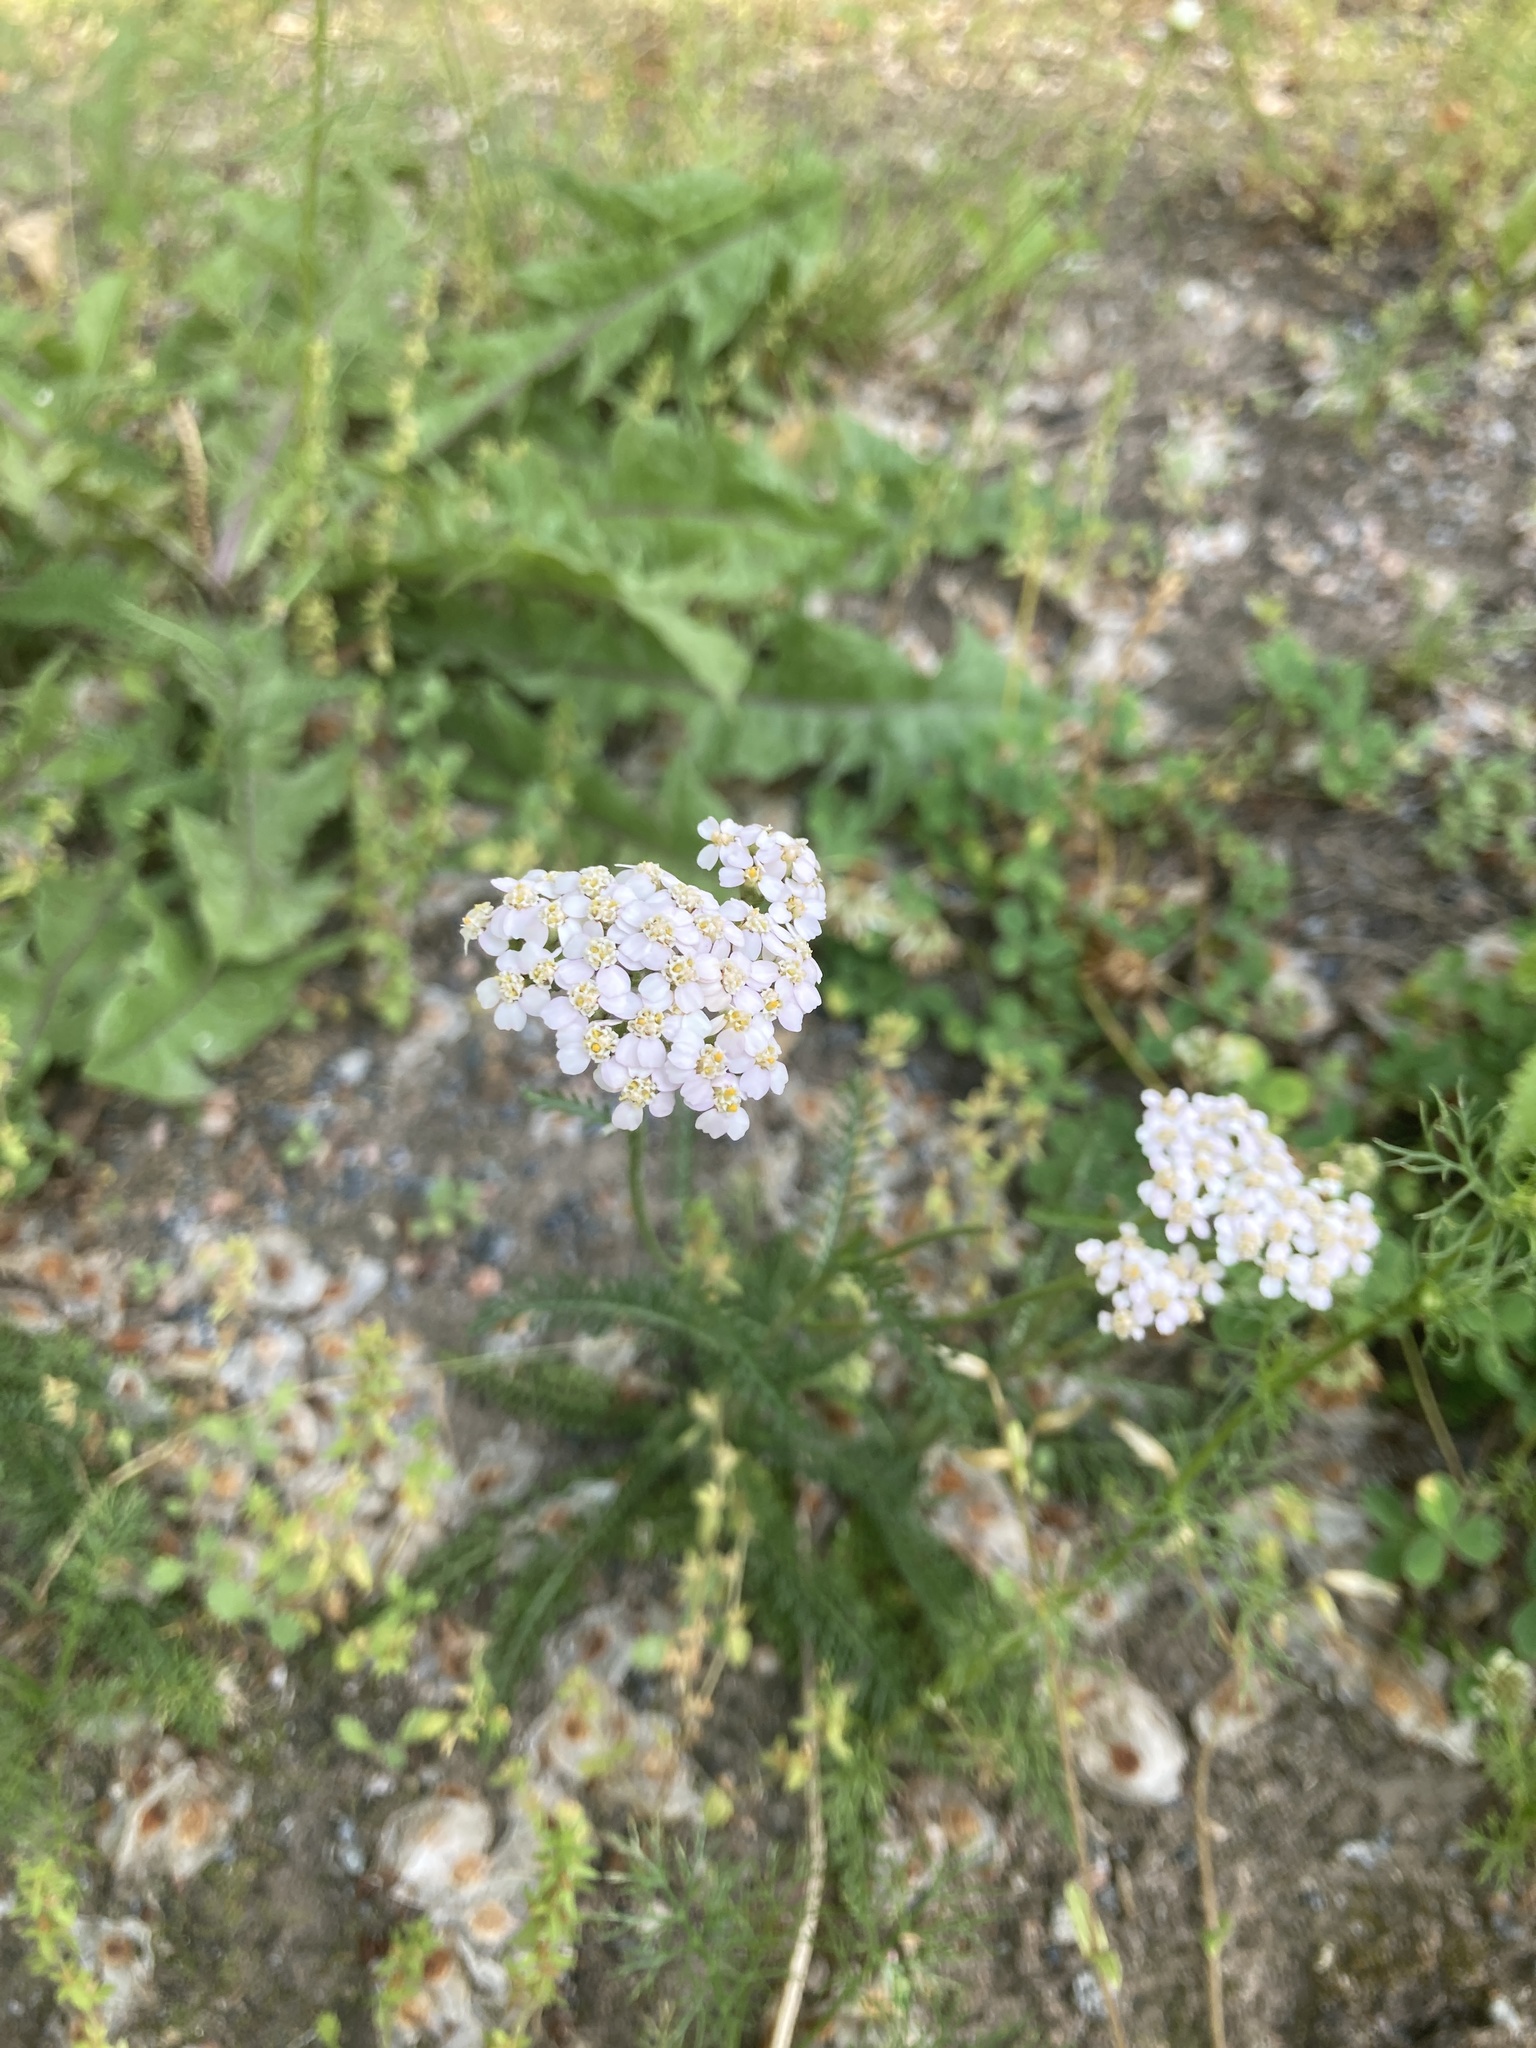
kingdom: Plantae
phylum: Tracheophyta
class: Magnoliopsida
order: Asterales
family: Asteraceae
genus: Achillea
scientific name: Achillea millefolium
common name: Yarrow
